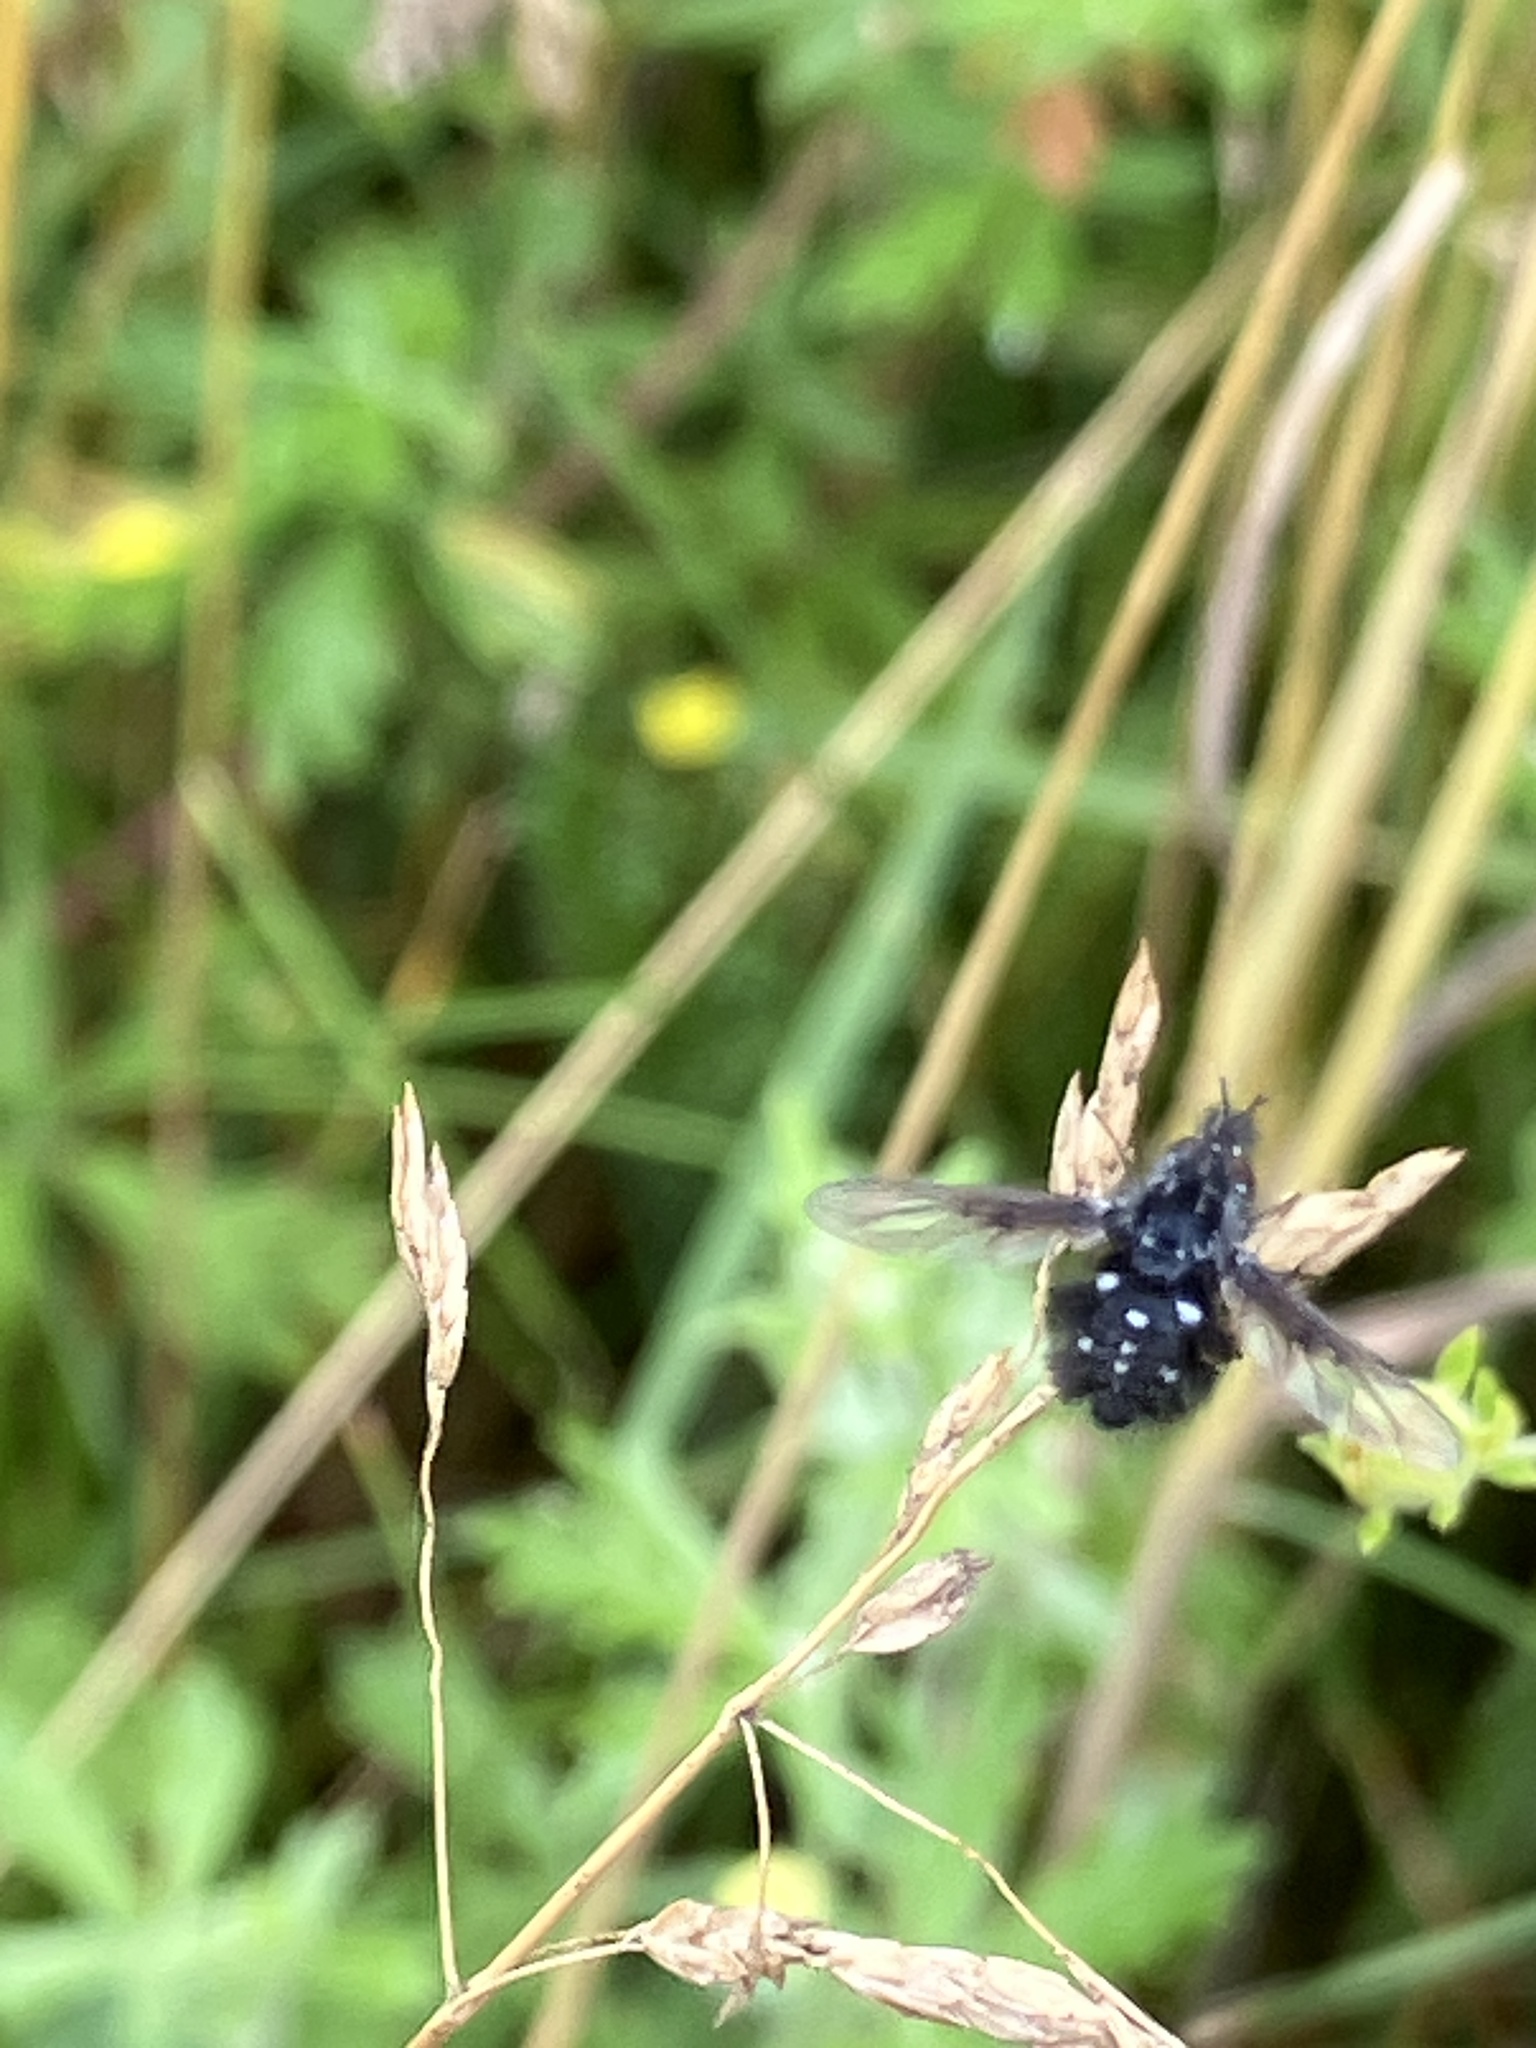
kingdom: Animalia
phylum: Arthropoda
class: Insecta
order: Diptera
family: Bombyliidae
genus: Bombylella
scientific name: Bombylella atra
